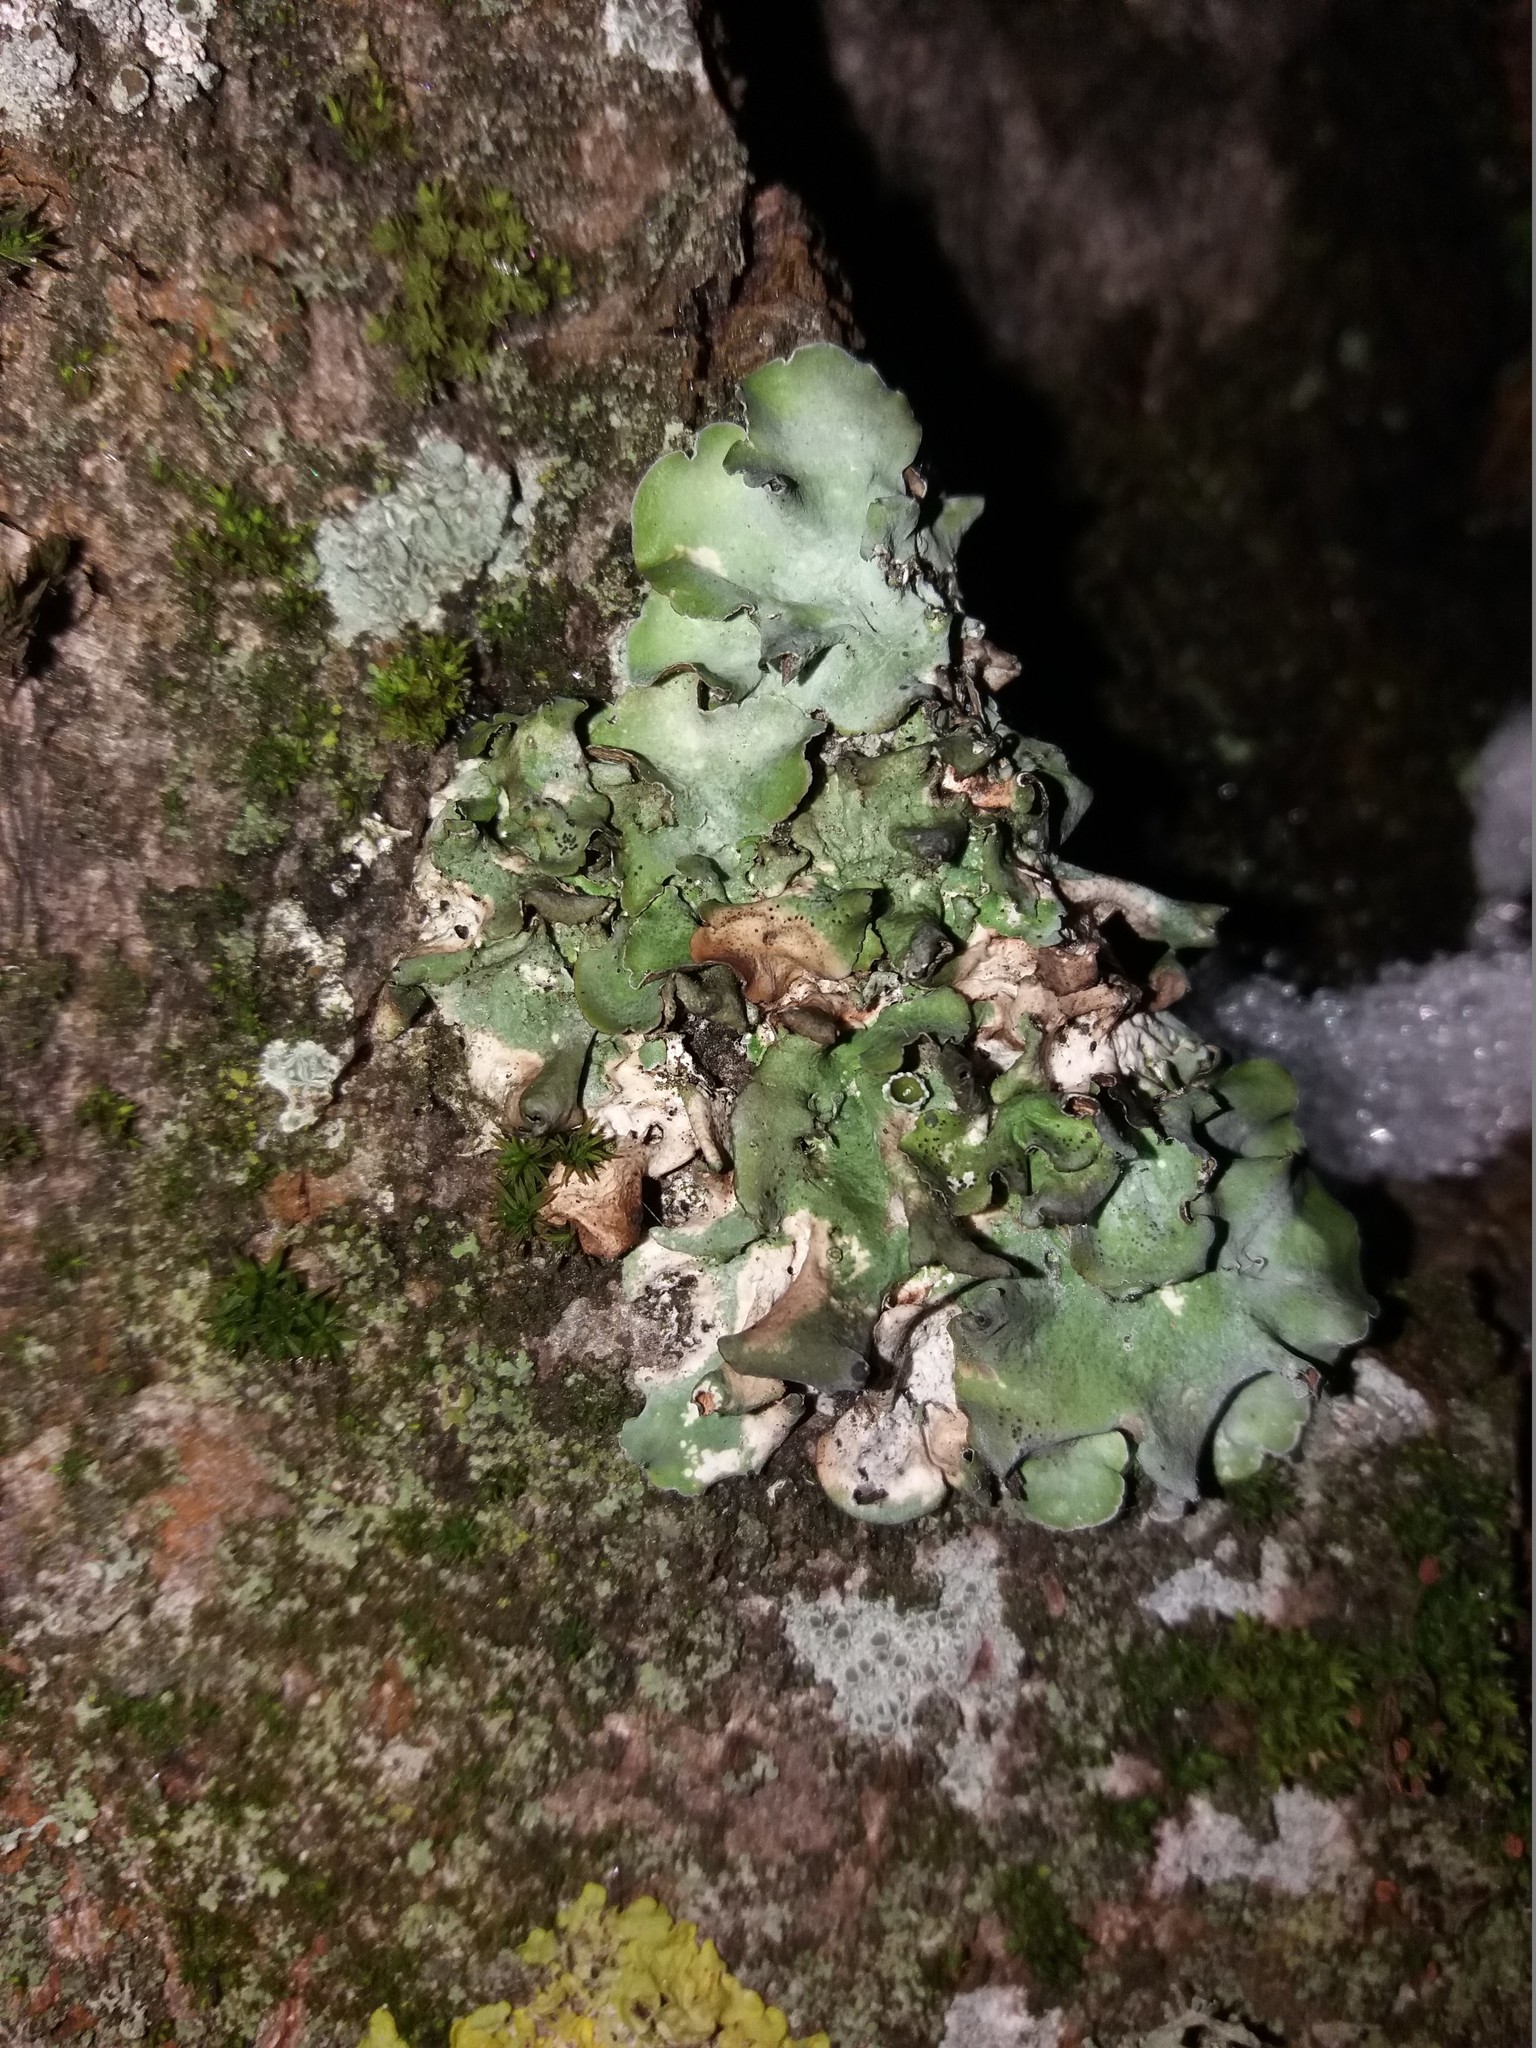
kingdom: Fungi
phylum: Ascomycota
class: Lecanoromycetes
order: Lecanorales
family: Parmeliaceae
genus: Pleurosticta
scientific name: Pleurosticta acetabulum
